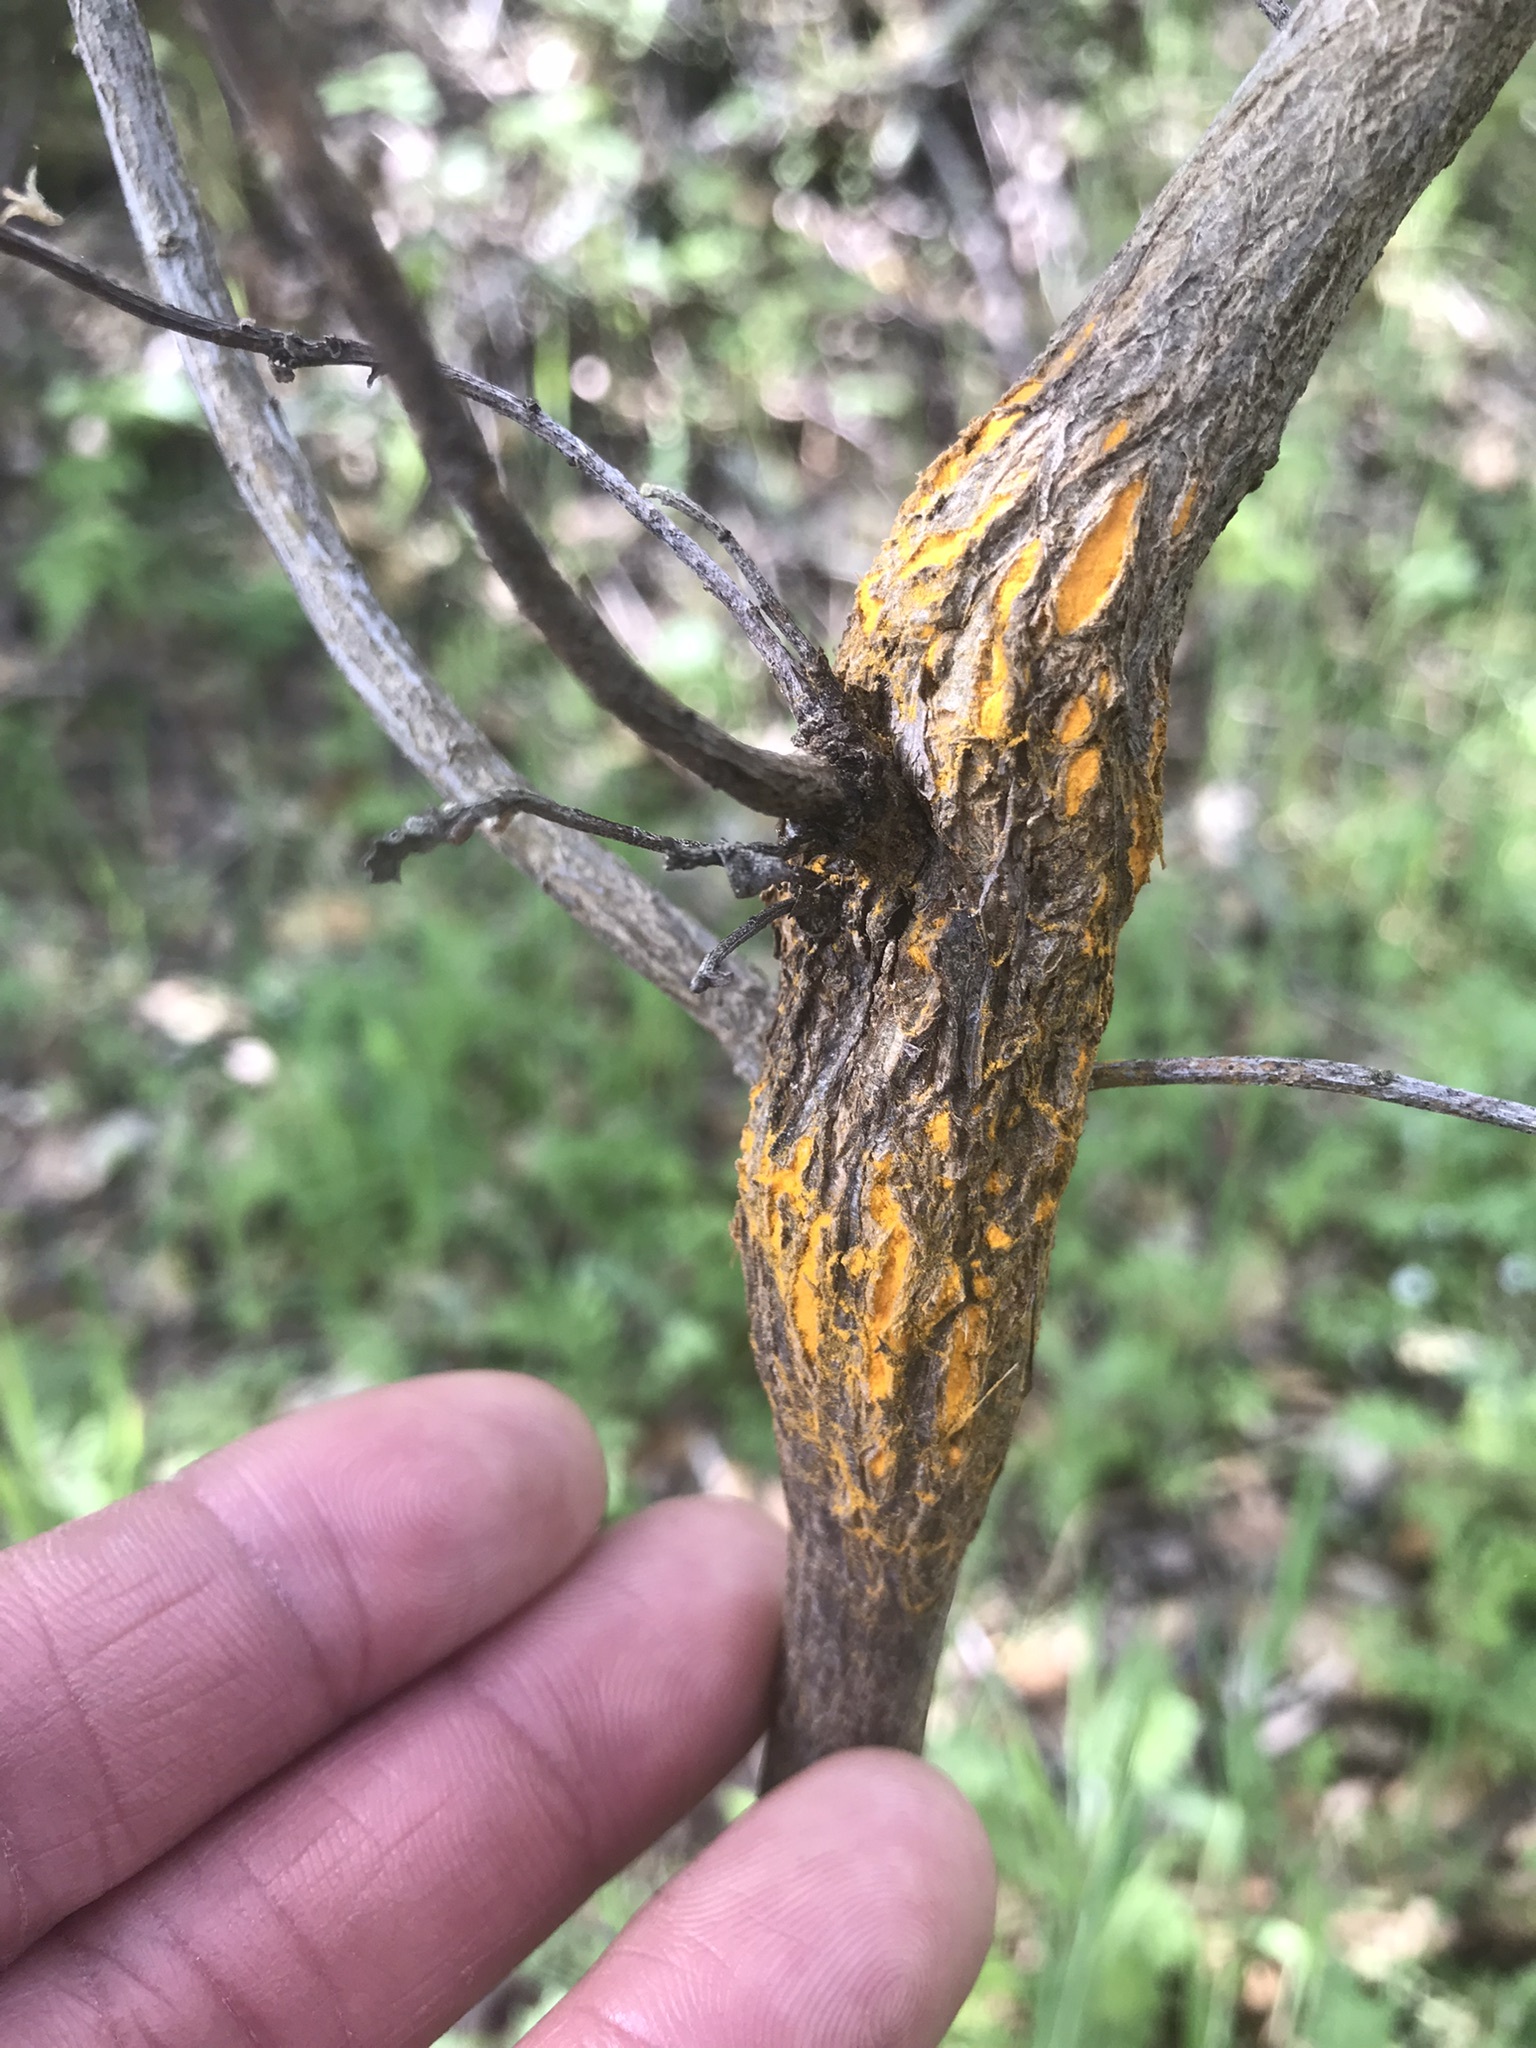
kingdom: Fungi
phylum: Basidiomycota
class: Pucciniomycetes
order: Pucciniales
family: Pucciniaceae
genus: Eriosporangium
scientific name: Eriosporangium evadens
